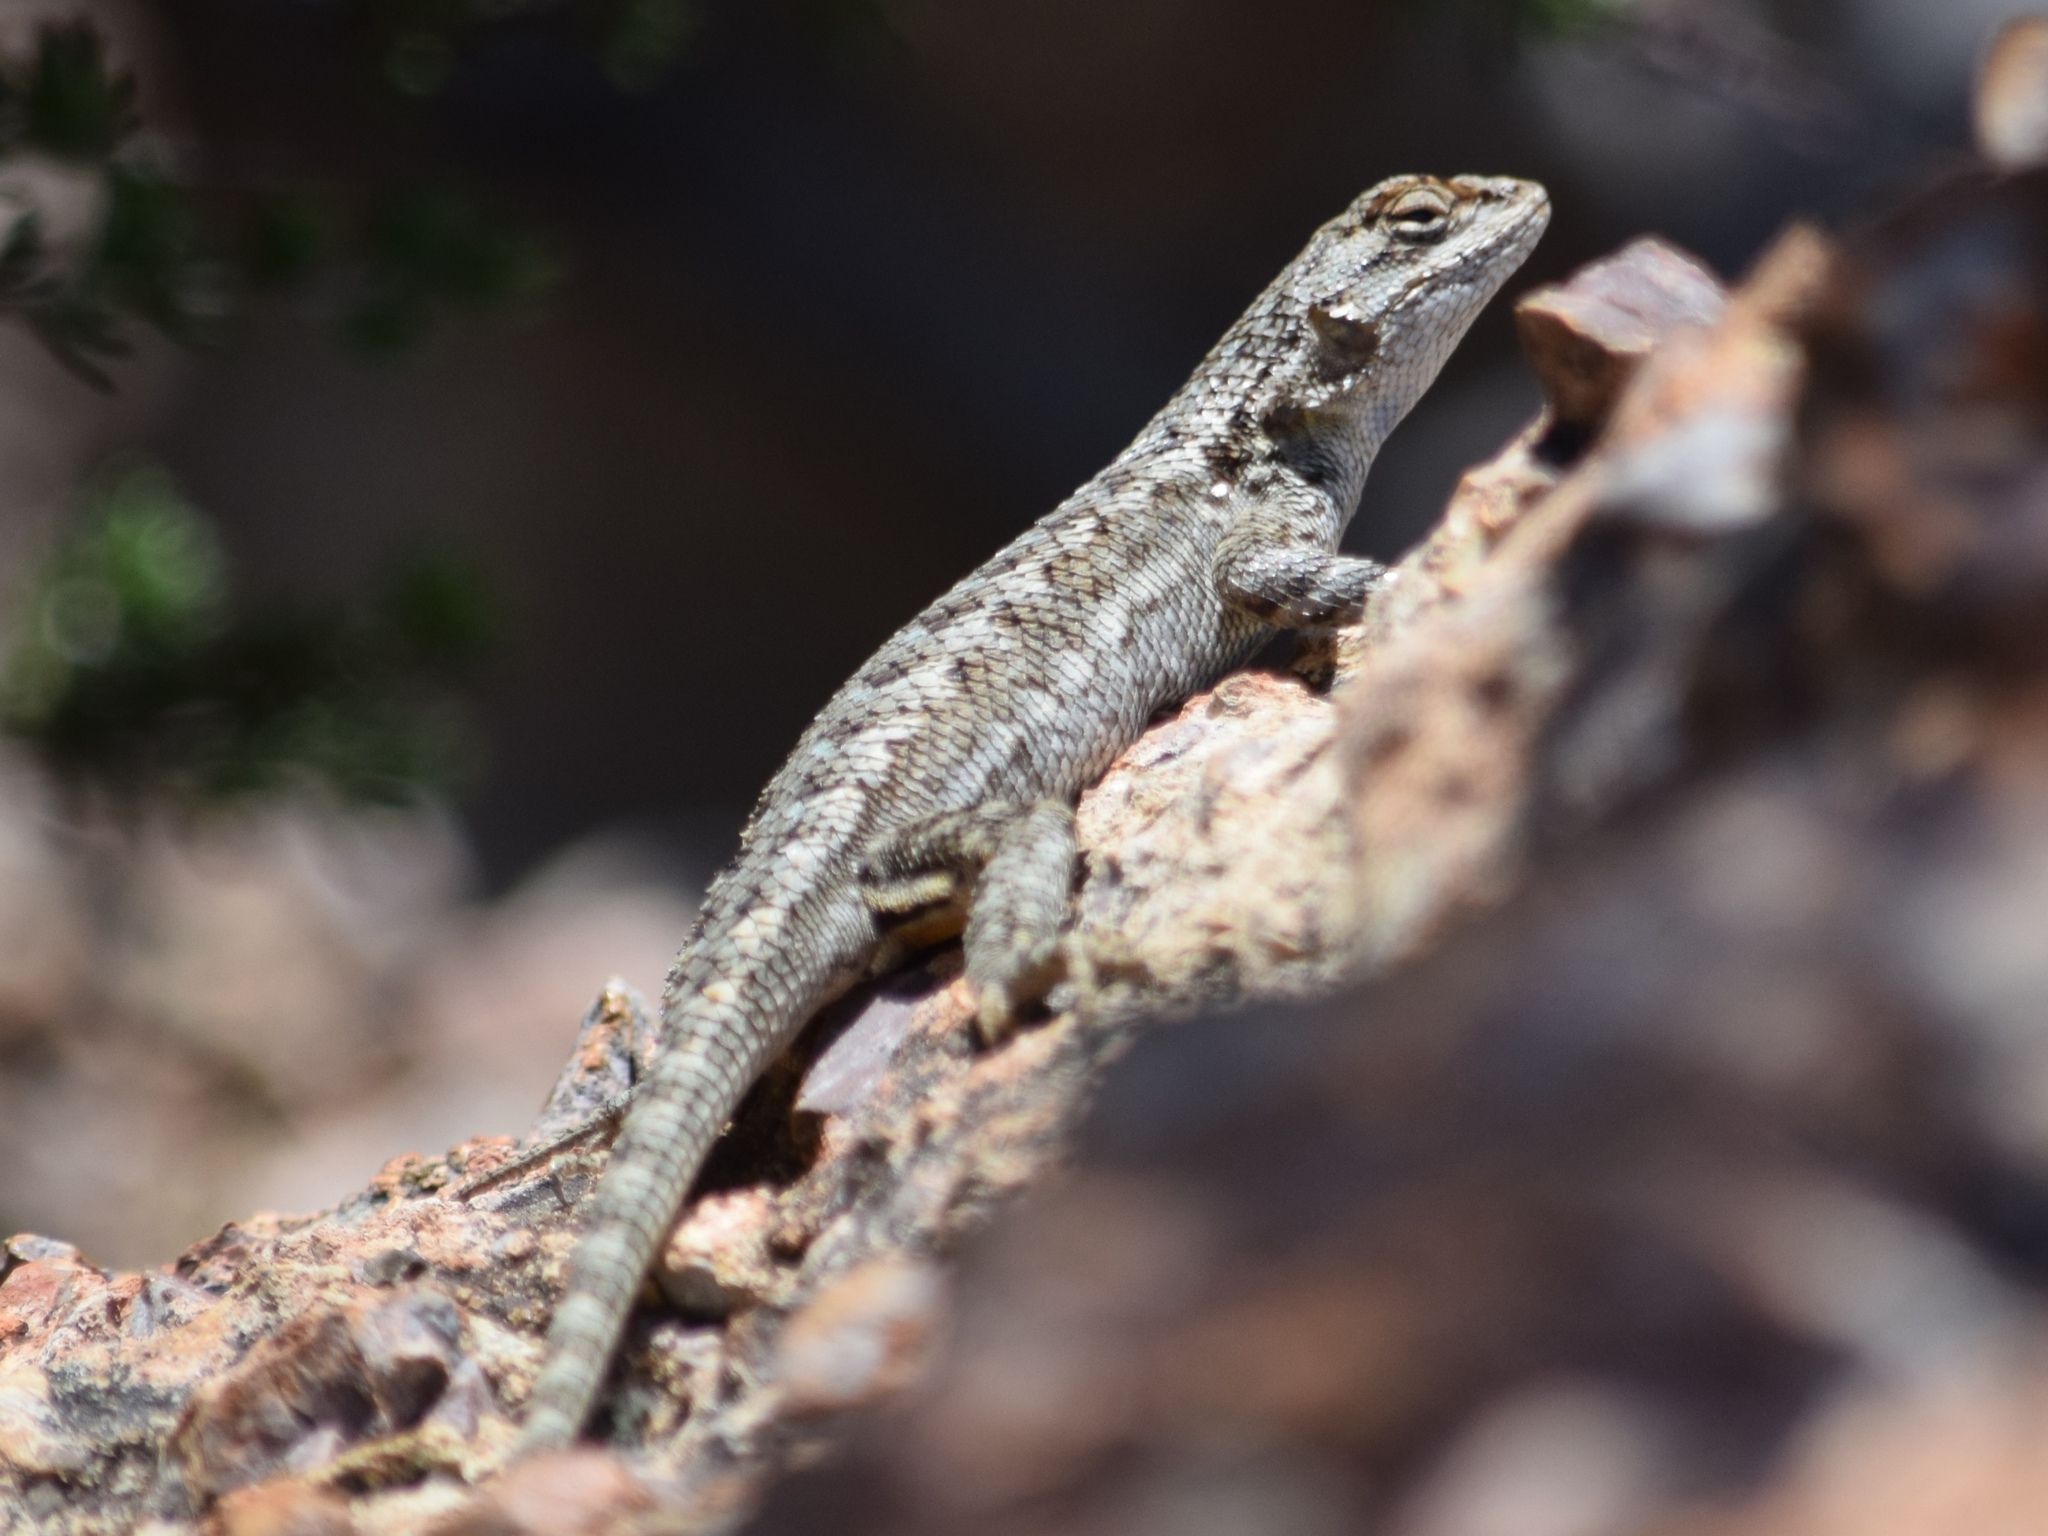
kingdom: Animalia
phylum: Chordata
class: Squamata
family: Phrynosomatidae
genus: Sceloporus
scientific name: Sceloporus occidentalis
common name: Western fence lizard
